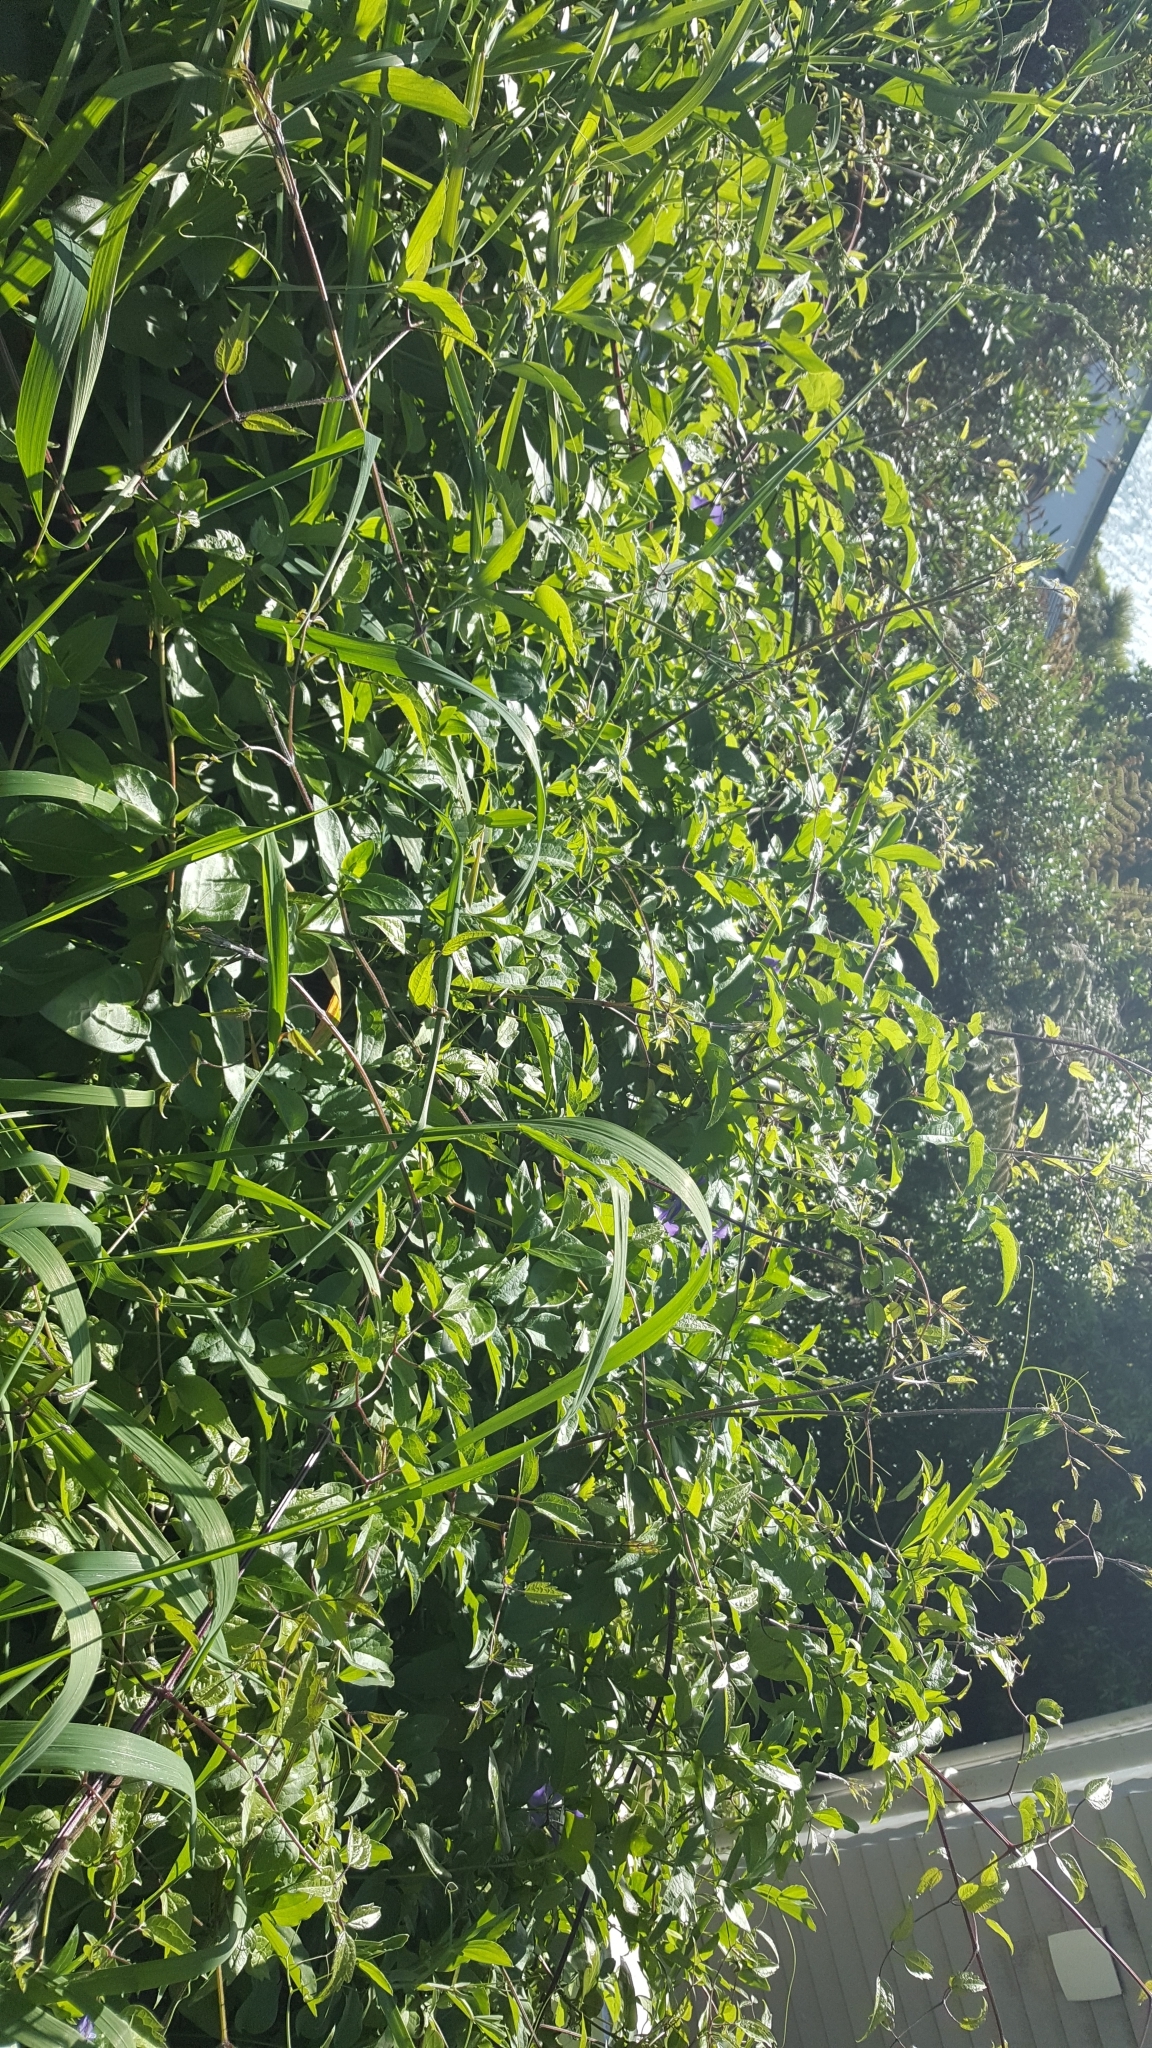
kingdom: Plantae
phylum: Tracheophyta
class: Magnoliopsida
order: Ranunculales
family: Ranunculaceae
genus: Clematis
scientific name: Clematis vitalba
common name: Evergreen clematis
